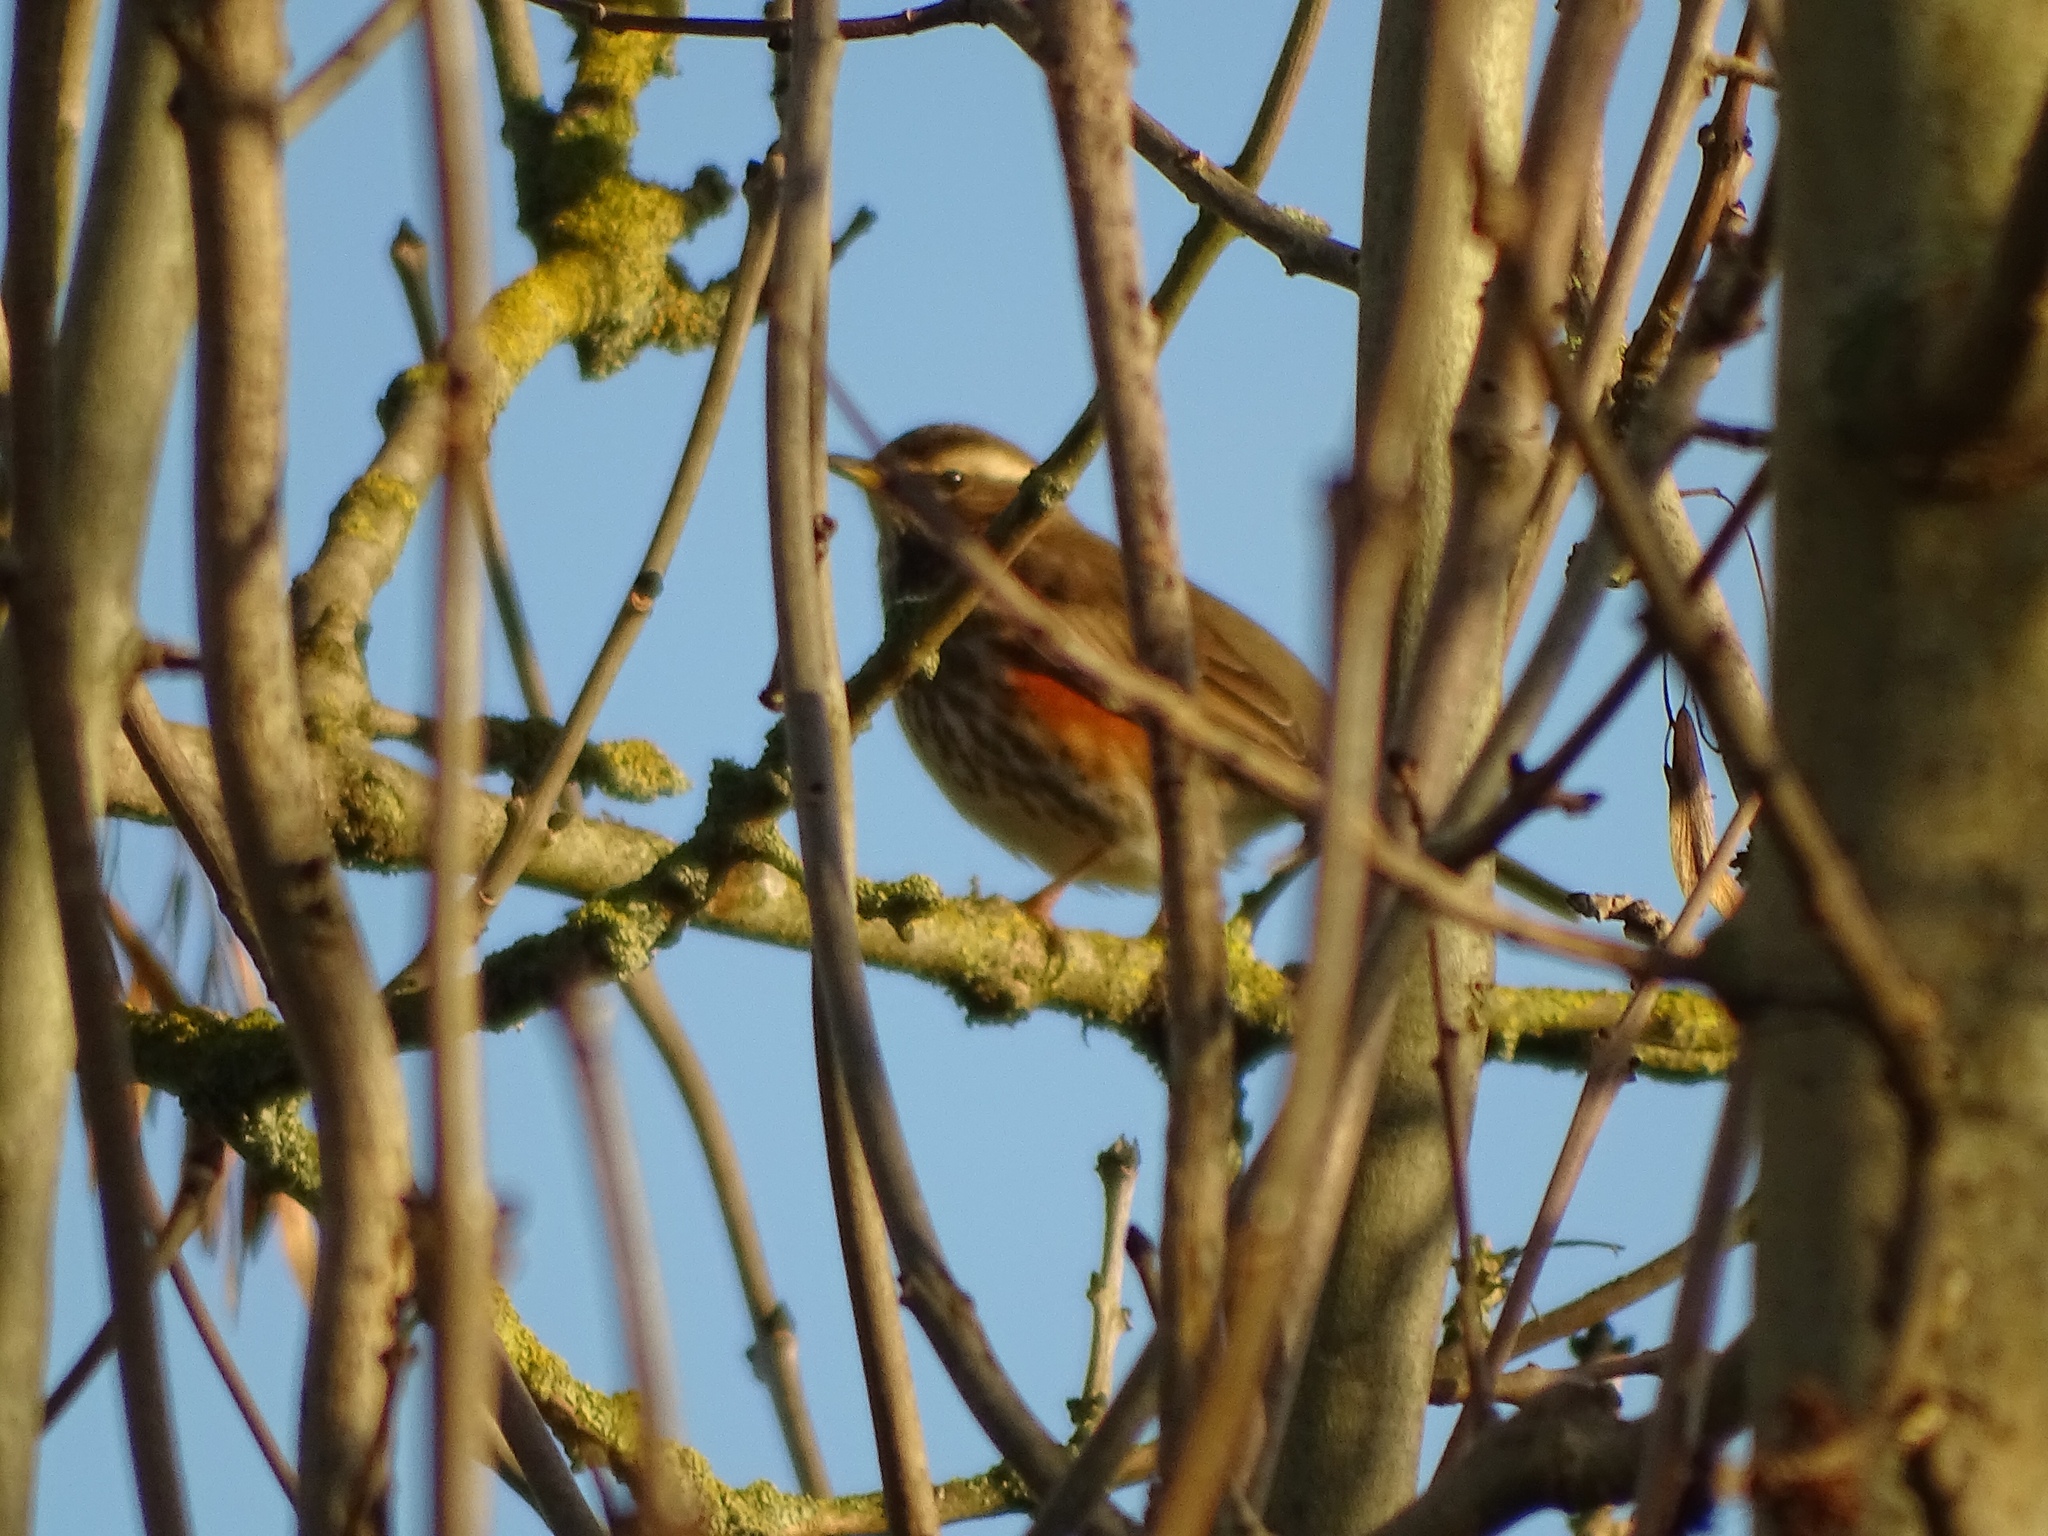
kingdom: Animalia
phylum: Chordata
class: Aves
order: Passeriformes
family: Turdidae
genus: Turdus
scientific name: Turdus iliacus
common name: Redwing
